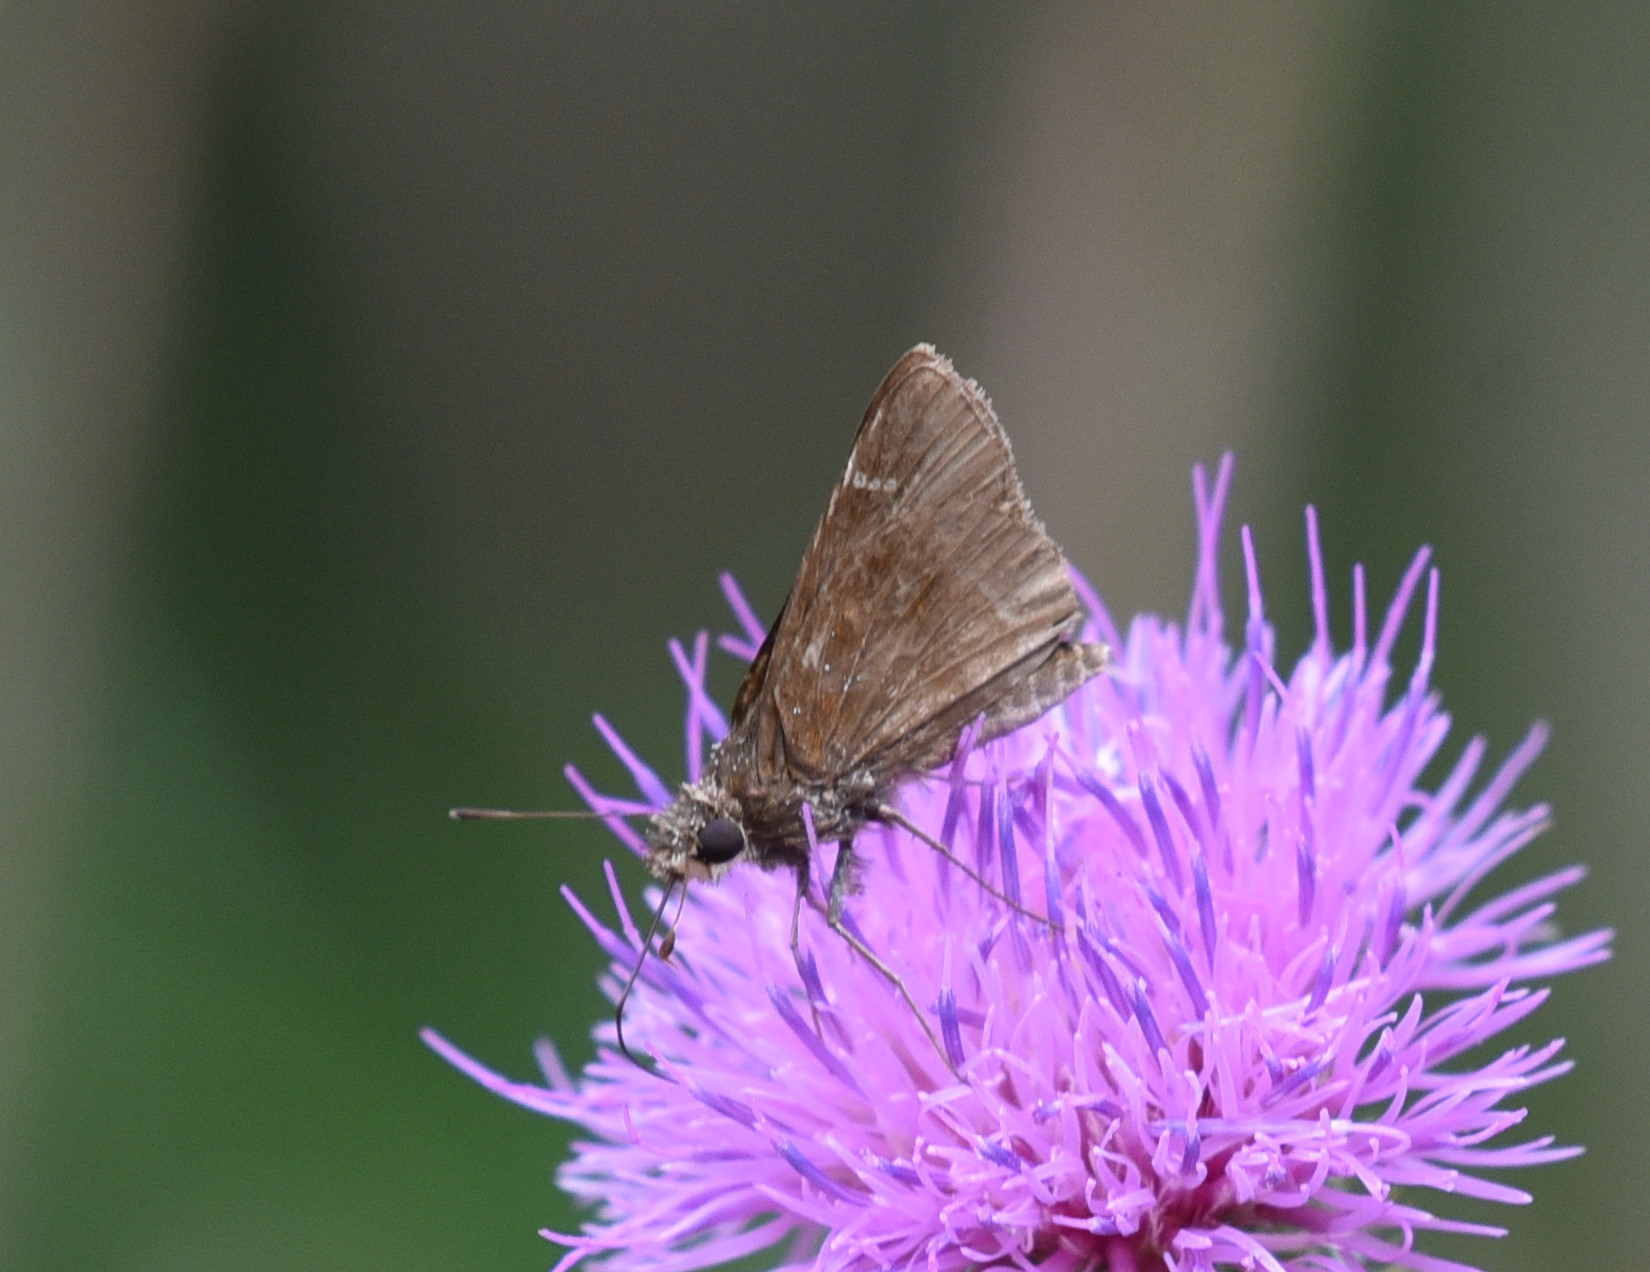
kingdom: Animalia
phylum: Arthropoda
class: Insecta
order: Lepidoptera
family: Hesperiidae
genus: Lerema
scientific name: Lerema accius
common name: Clouded skipper
